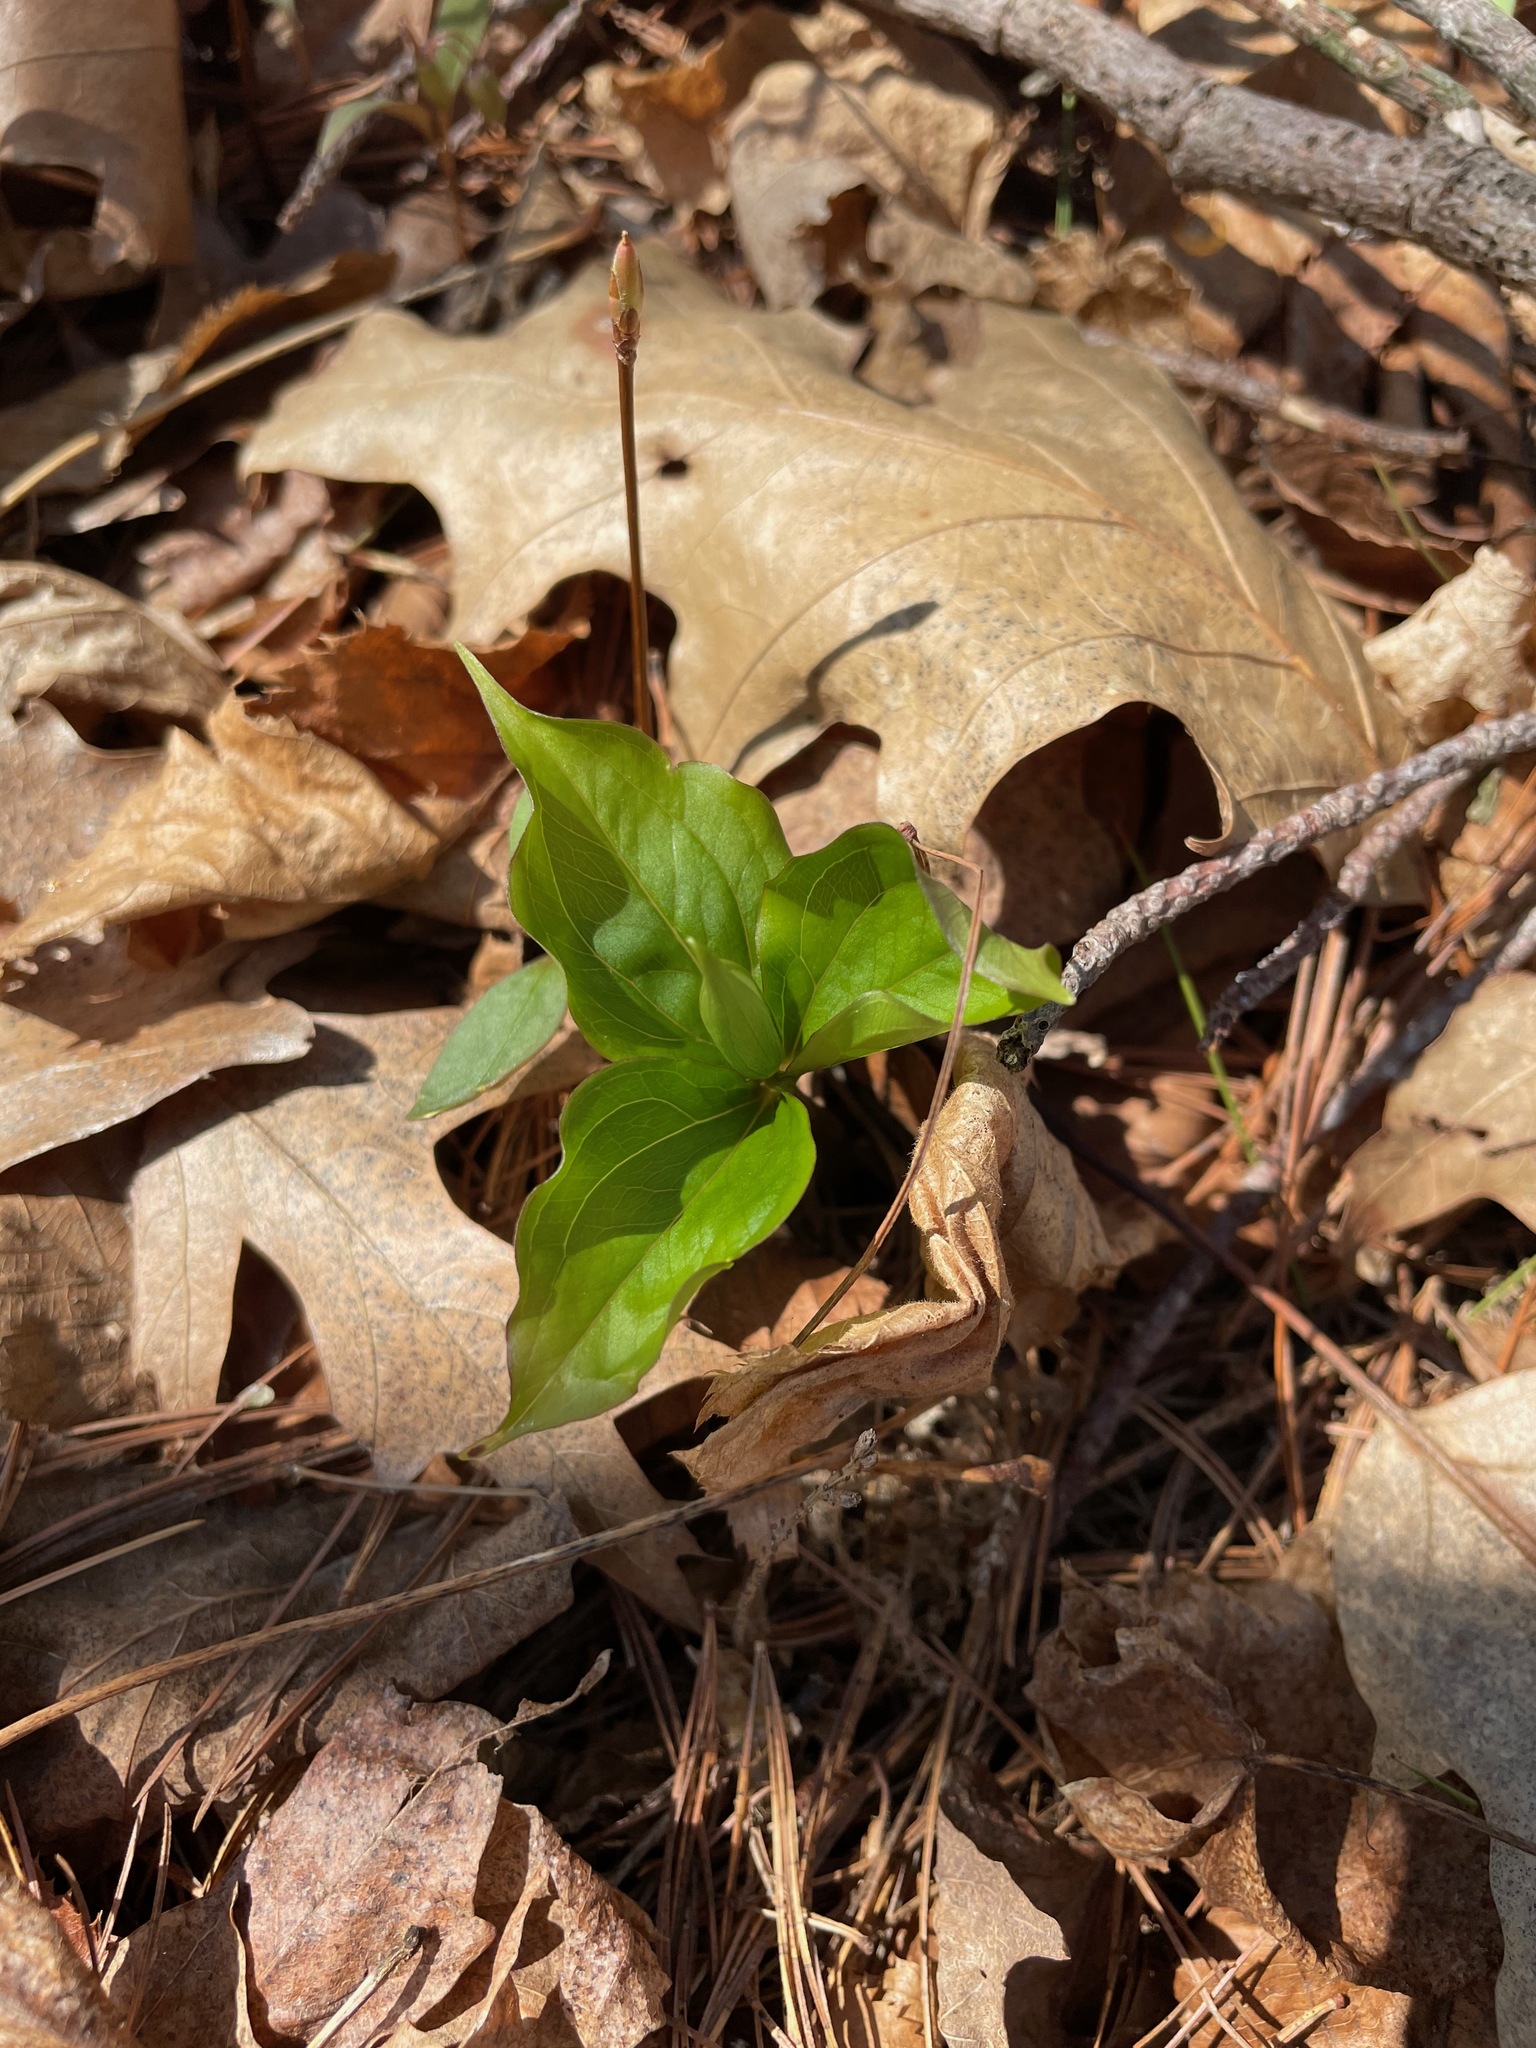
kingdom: Plantae
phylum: Tracheophyta
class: Liliopsida
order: Liliales
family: Melanthiaceae
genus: Trillium
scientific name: Trillium grandiflorum
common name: Great white trillium
